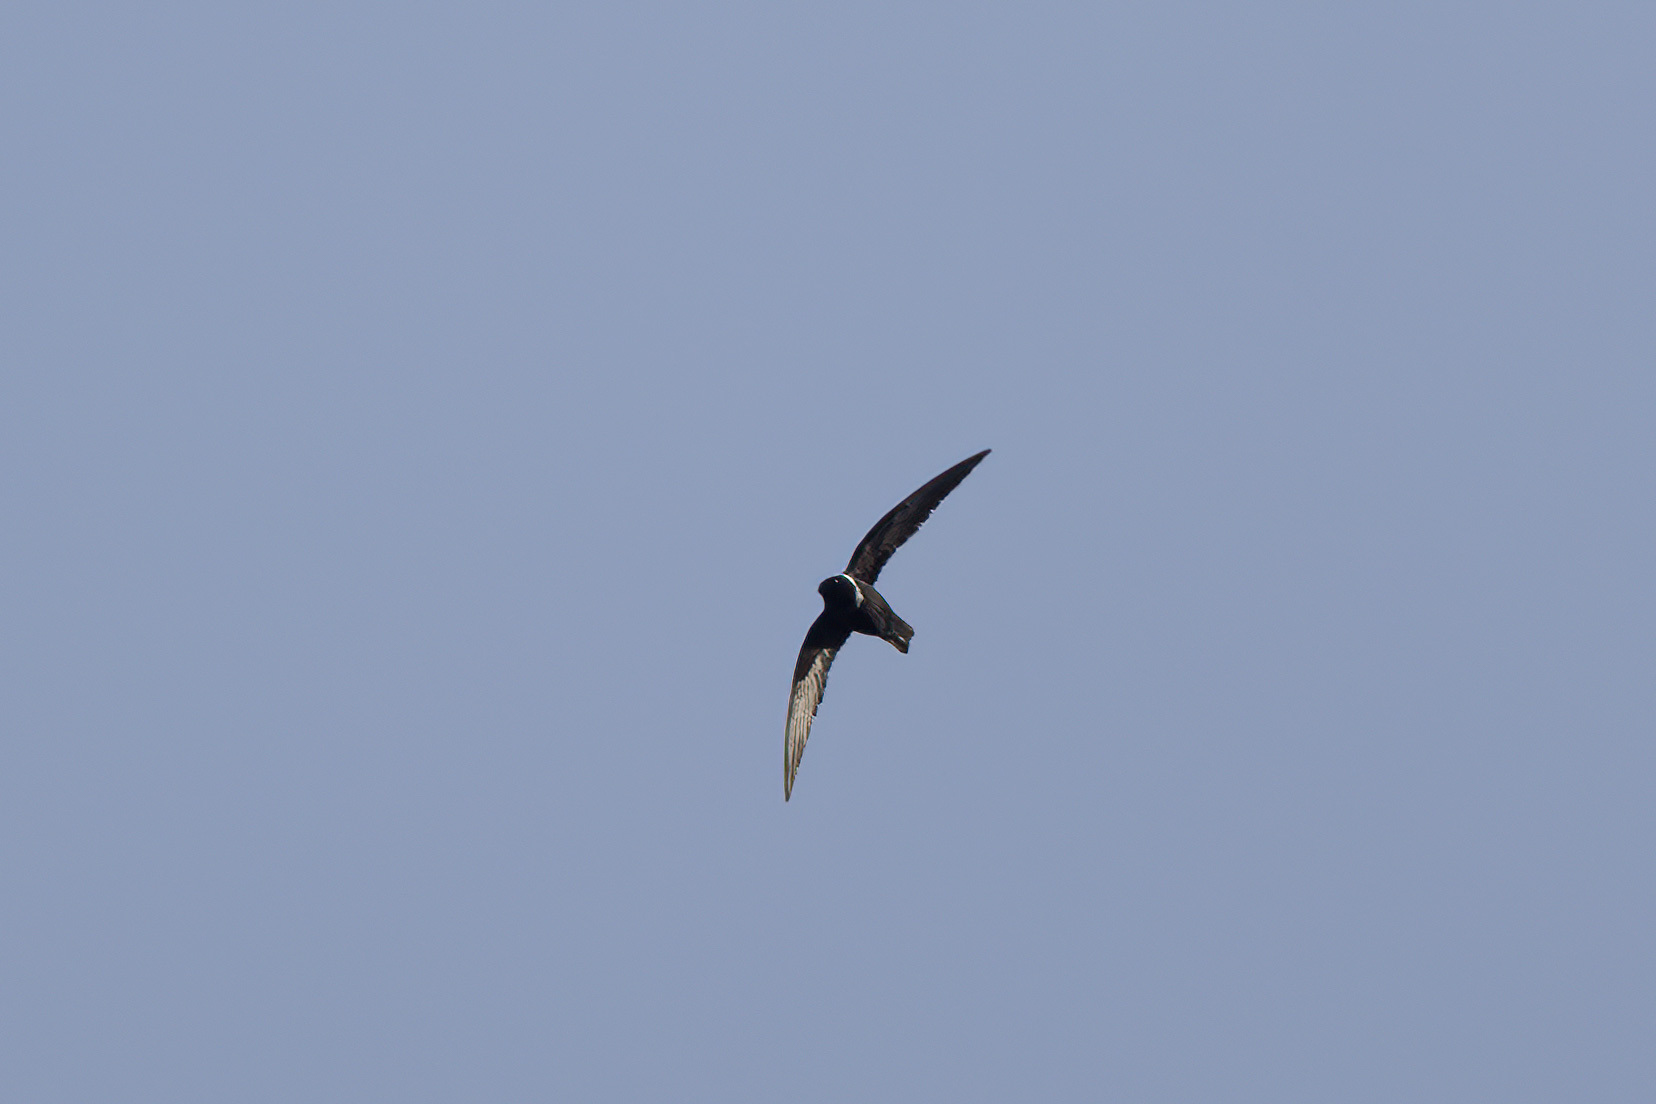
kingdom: Animalia
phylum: Chordata
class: Aves
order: Apodiformes
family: Apodidae
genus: Streptoprocne
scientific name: Streptoprocne zonaris
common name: White-collared swift
